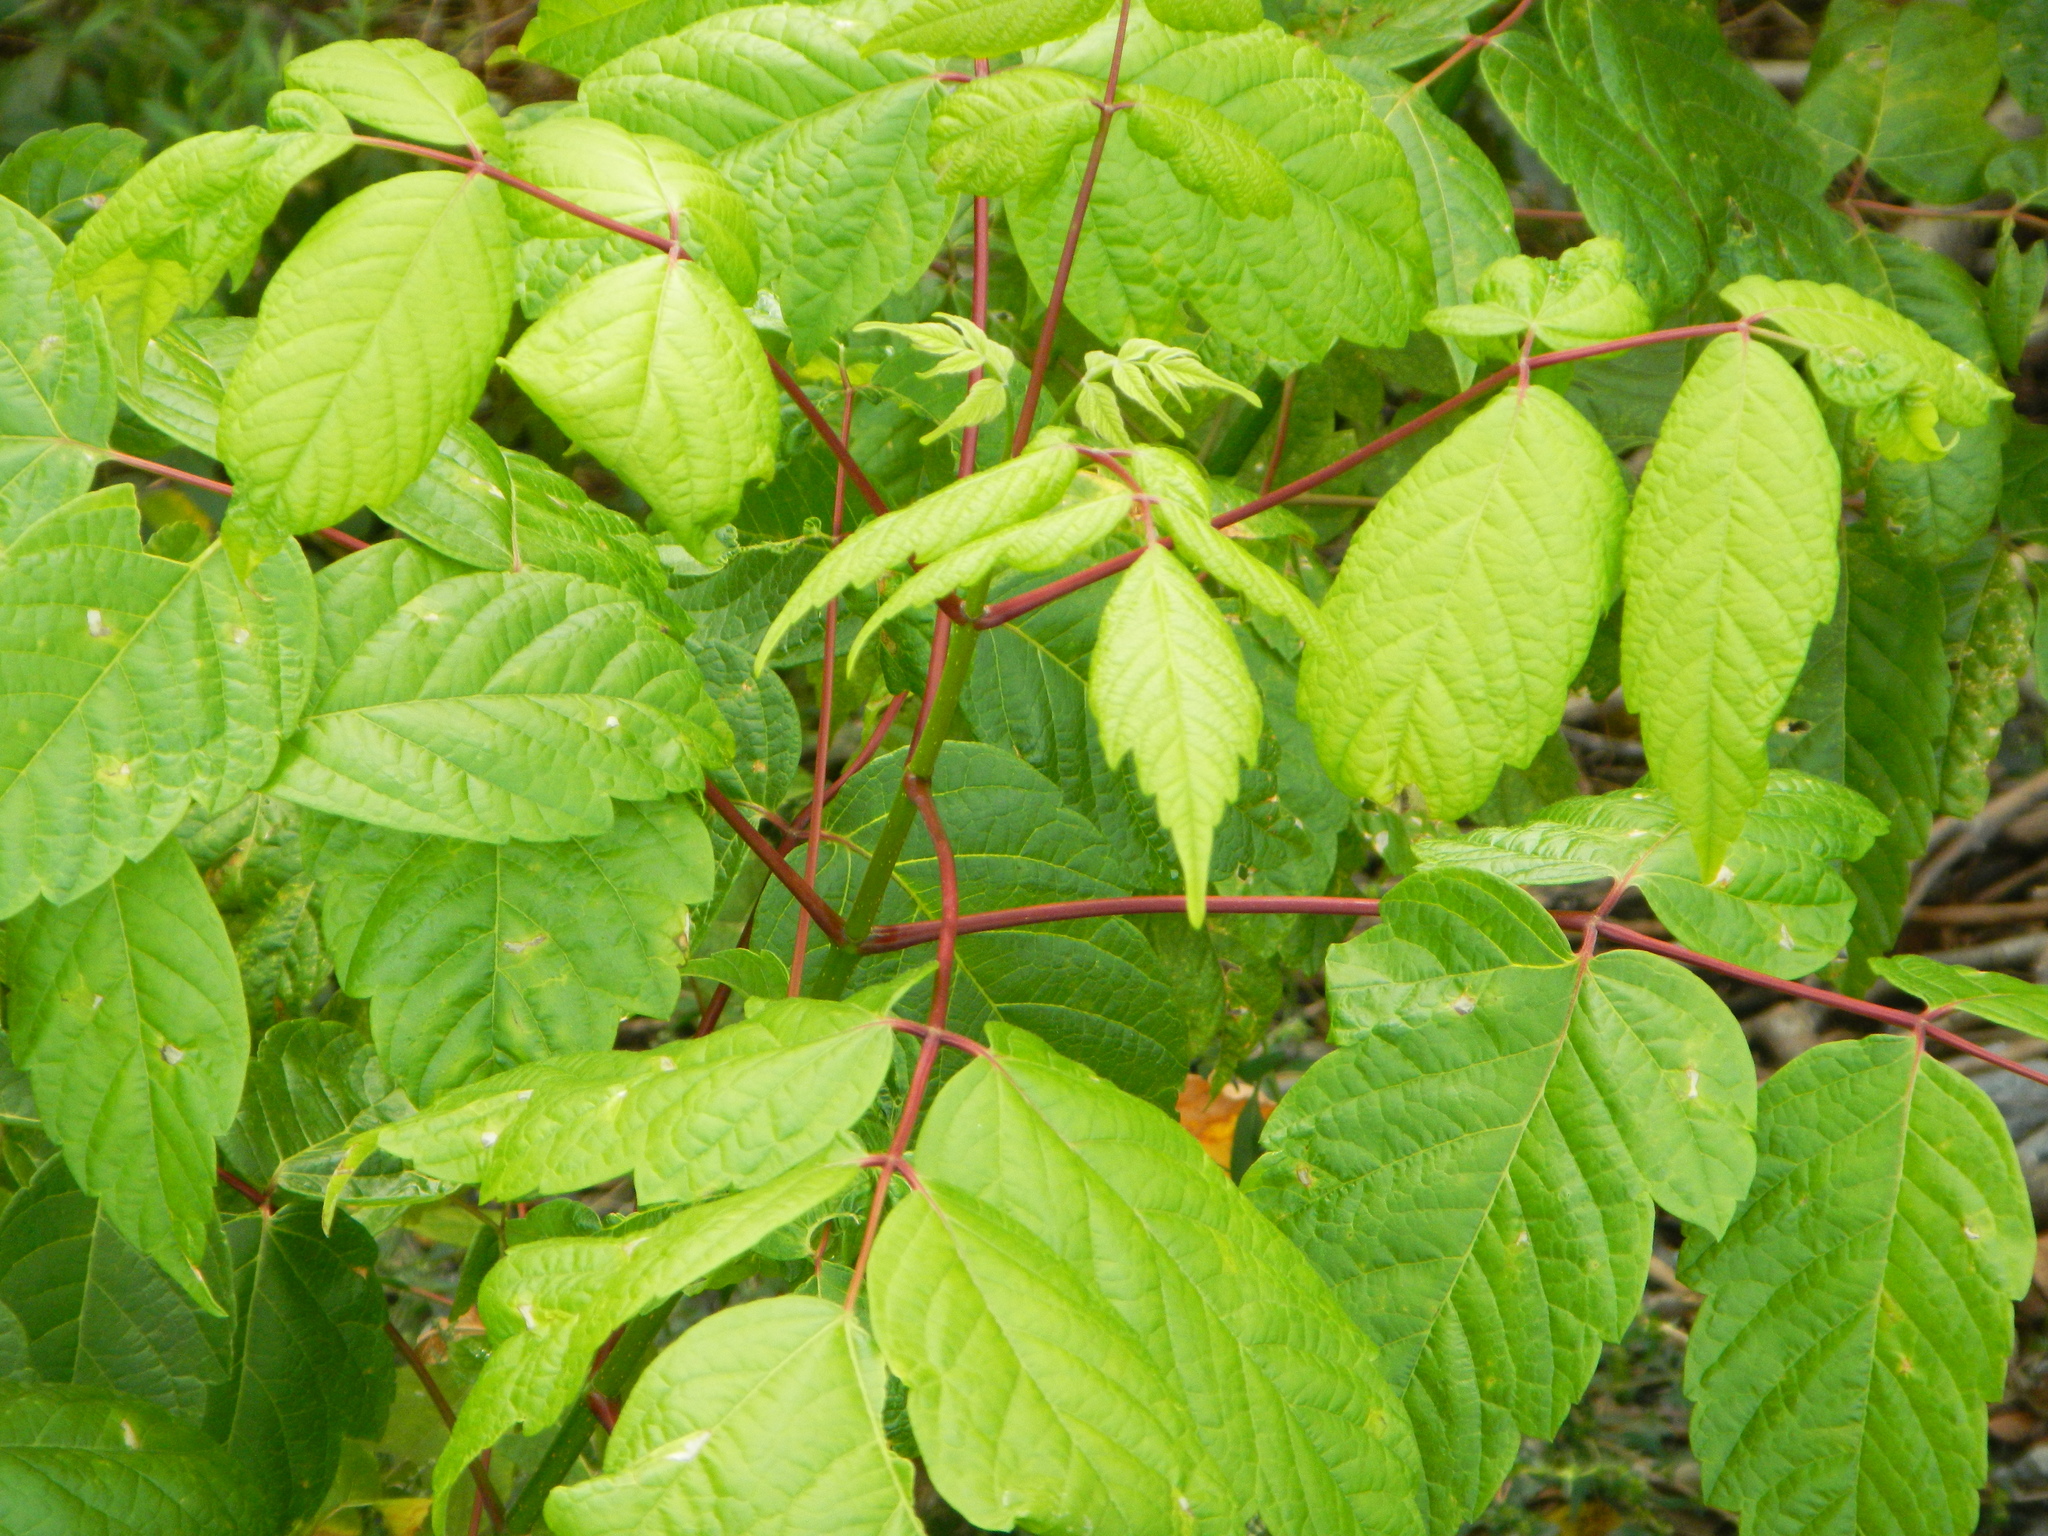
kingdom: Plantae
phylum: Tracheophyta
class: Magnoliopsida
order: Sapindales
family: Sapindaceae
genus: Acer
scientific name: Acer negundo
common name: Ashleaf maple
